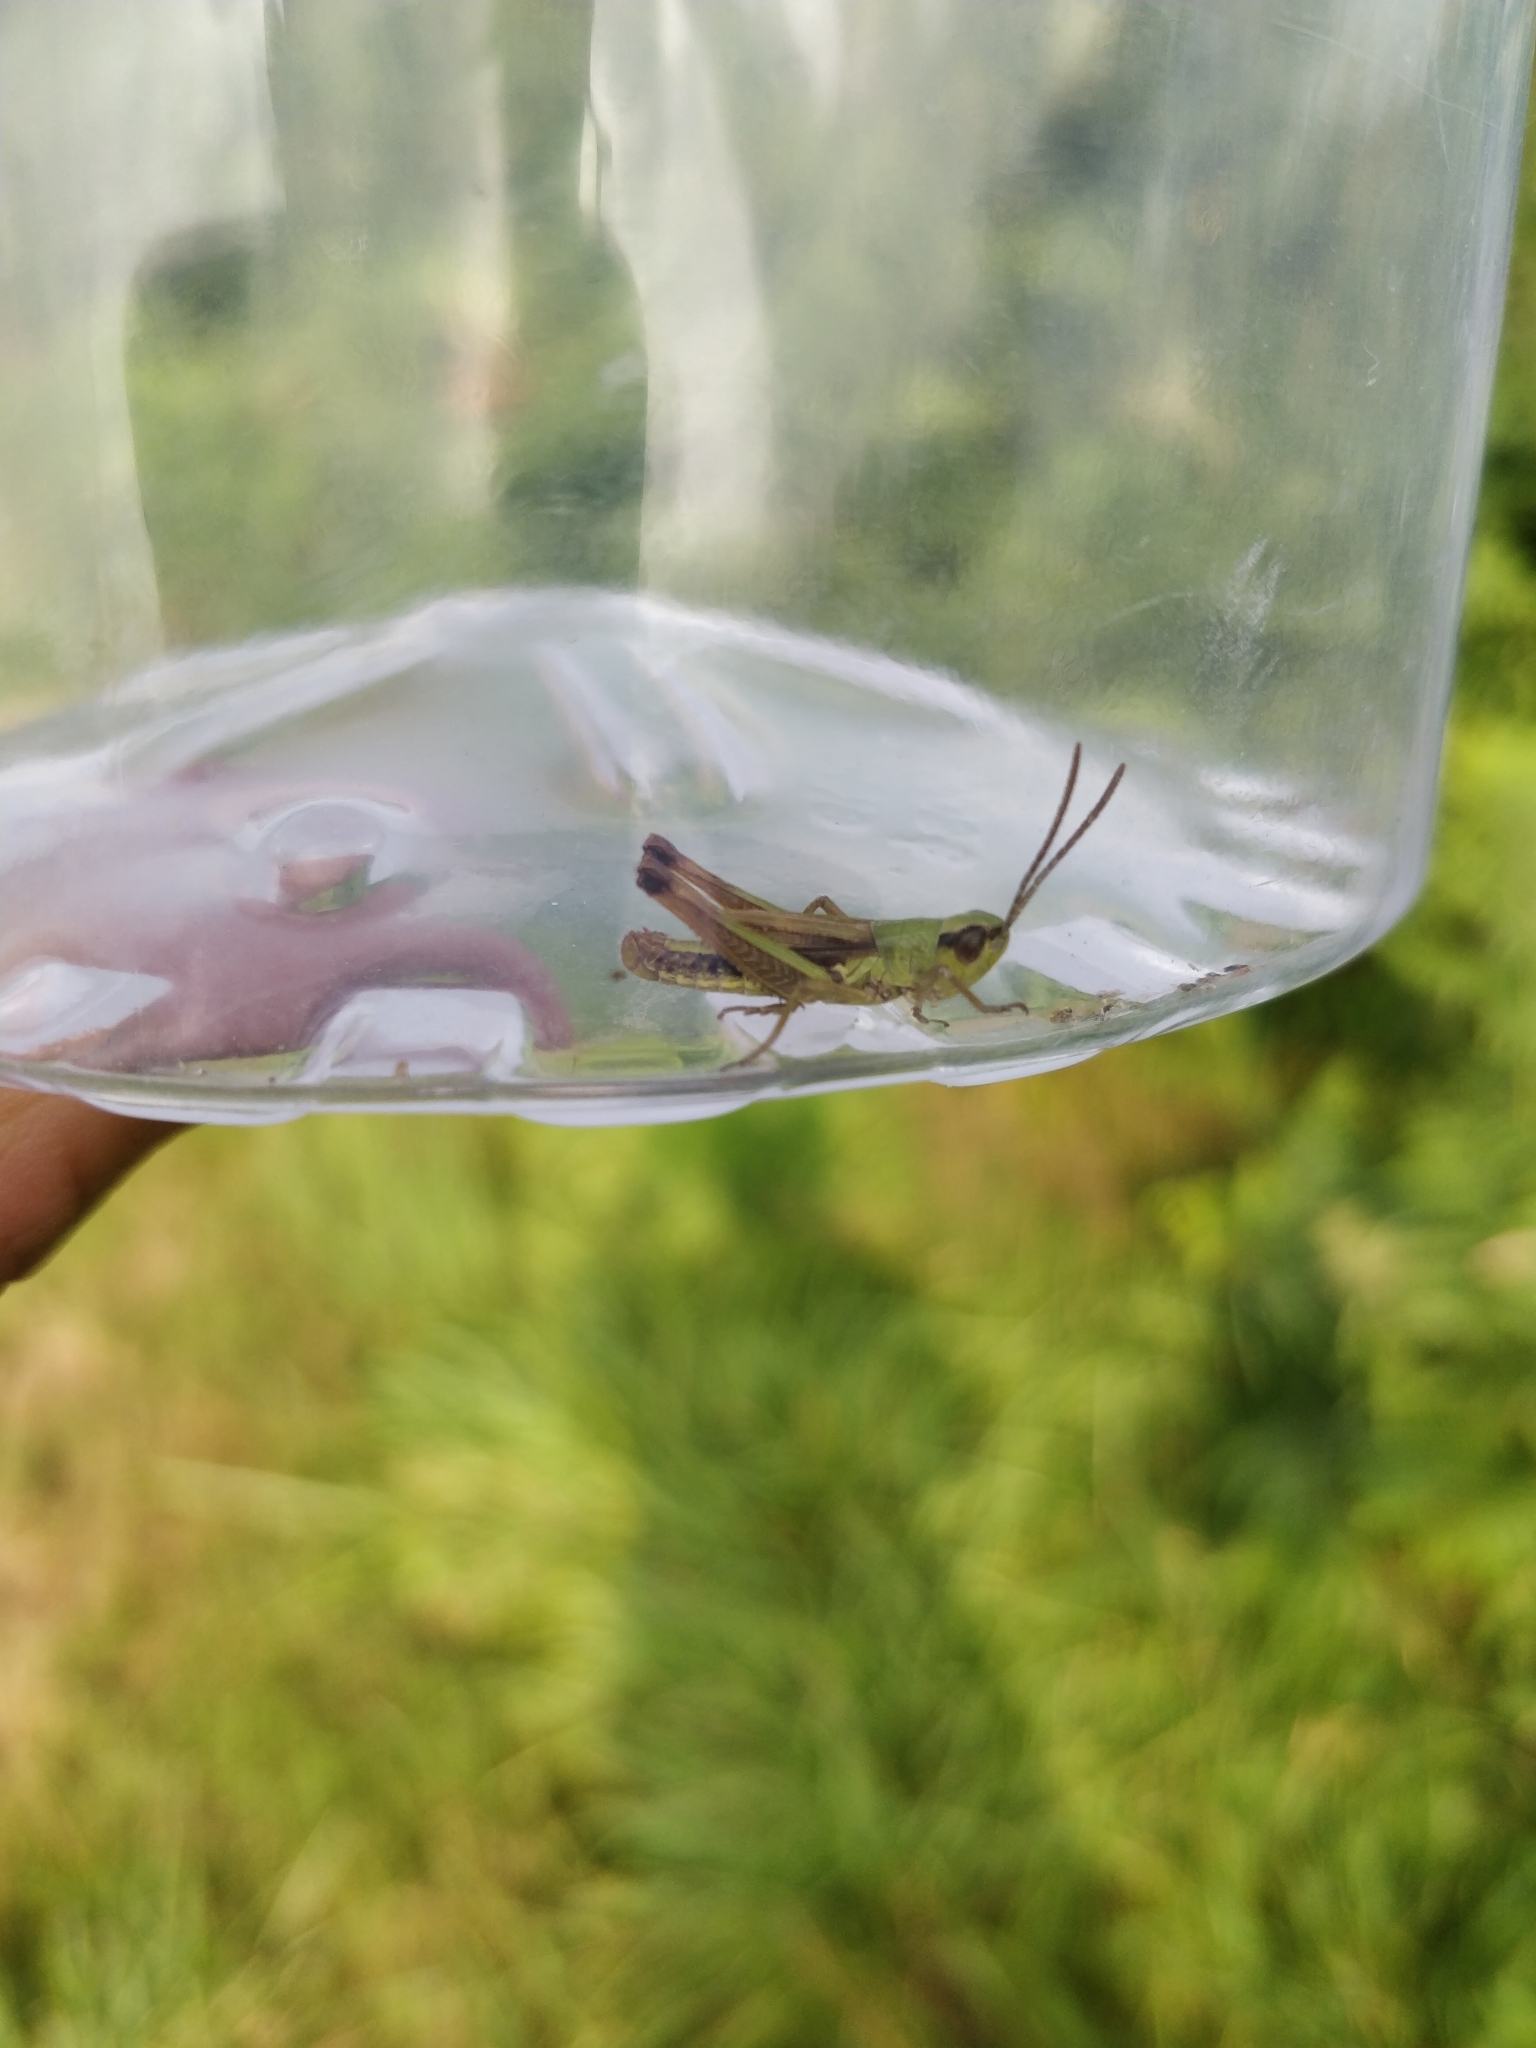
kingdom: Animalia
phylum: Arthropoda
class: Insecta
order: Orthoptera
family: Acrididae
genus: Pseudochorthippus
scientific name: Pseudochorthippus parallelus
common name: Meadow grasshopper
